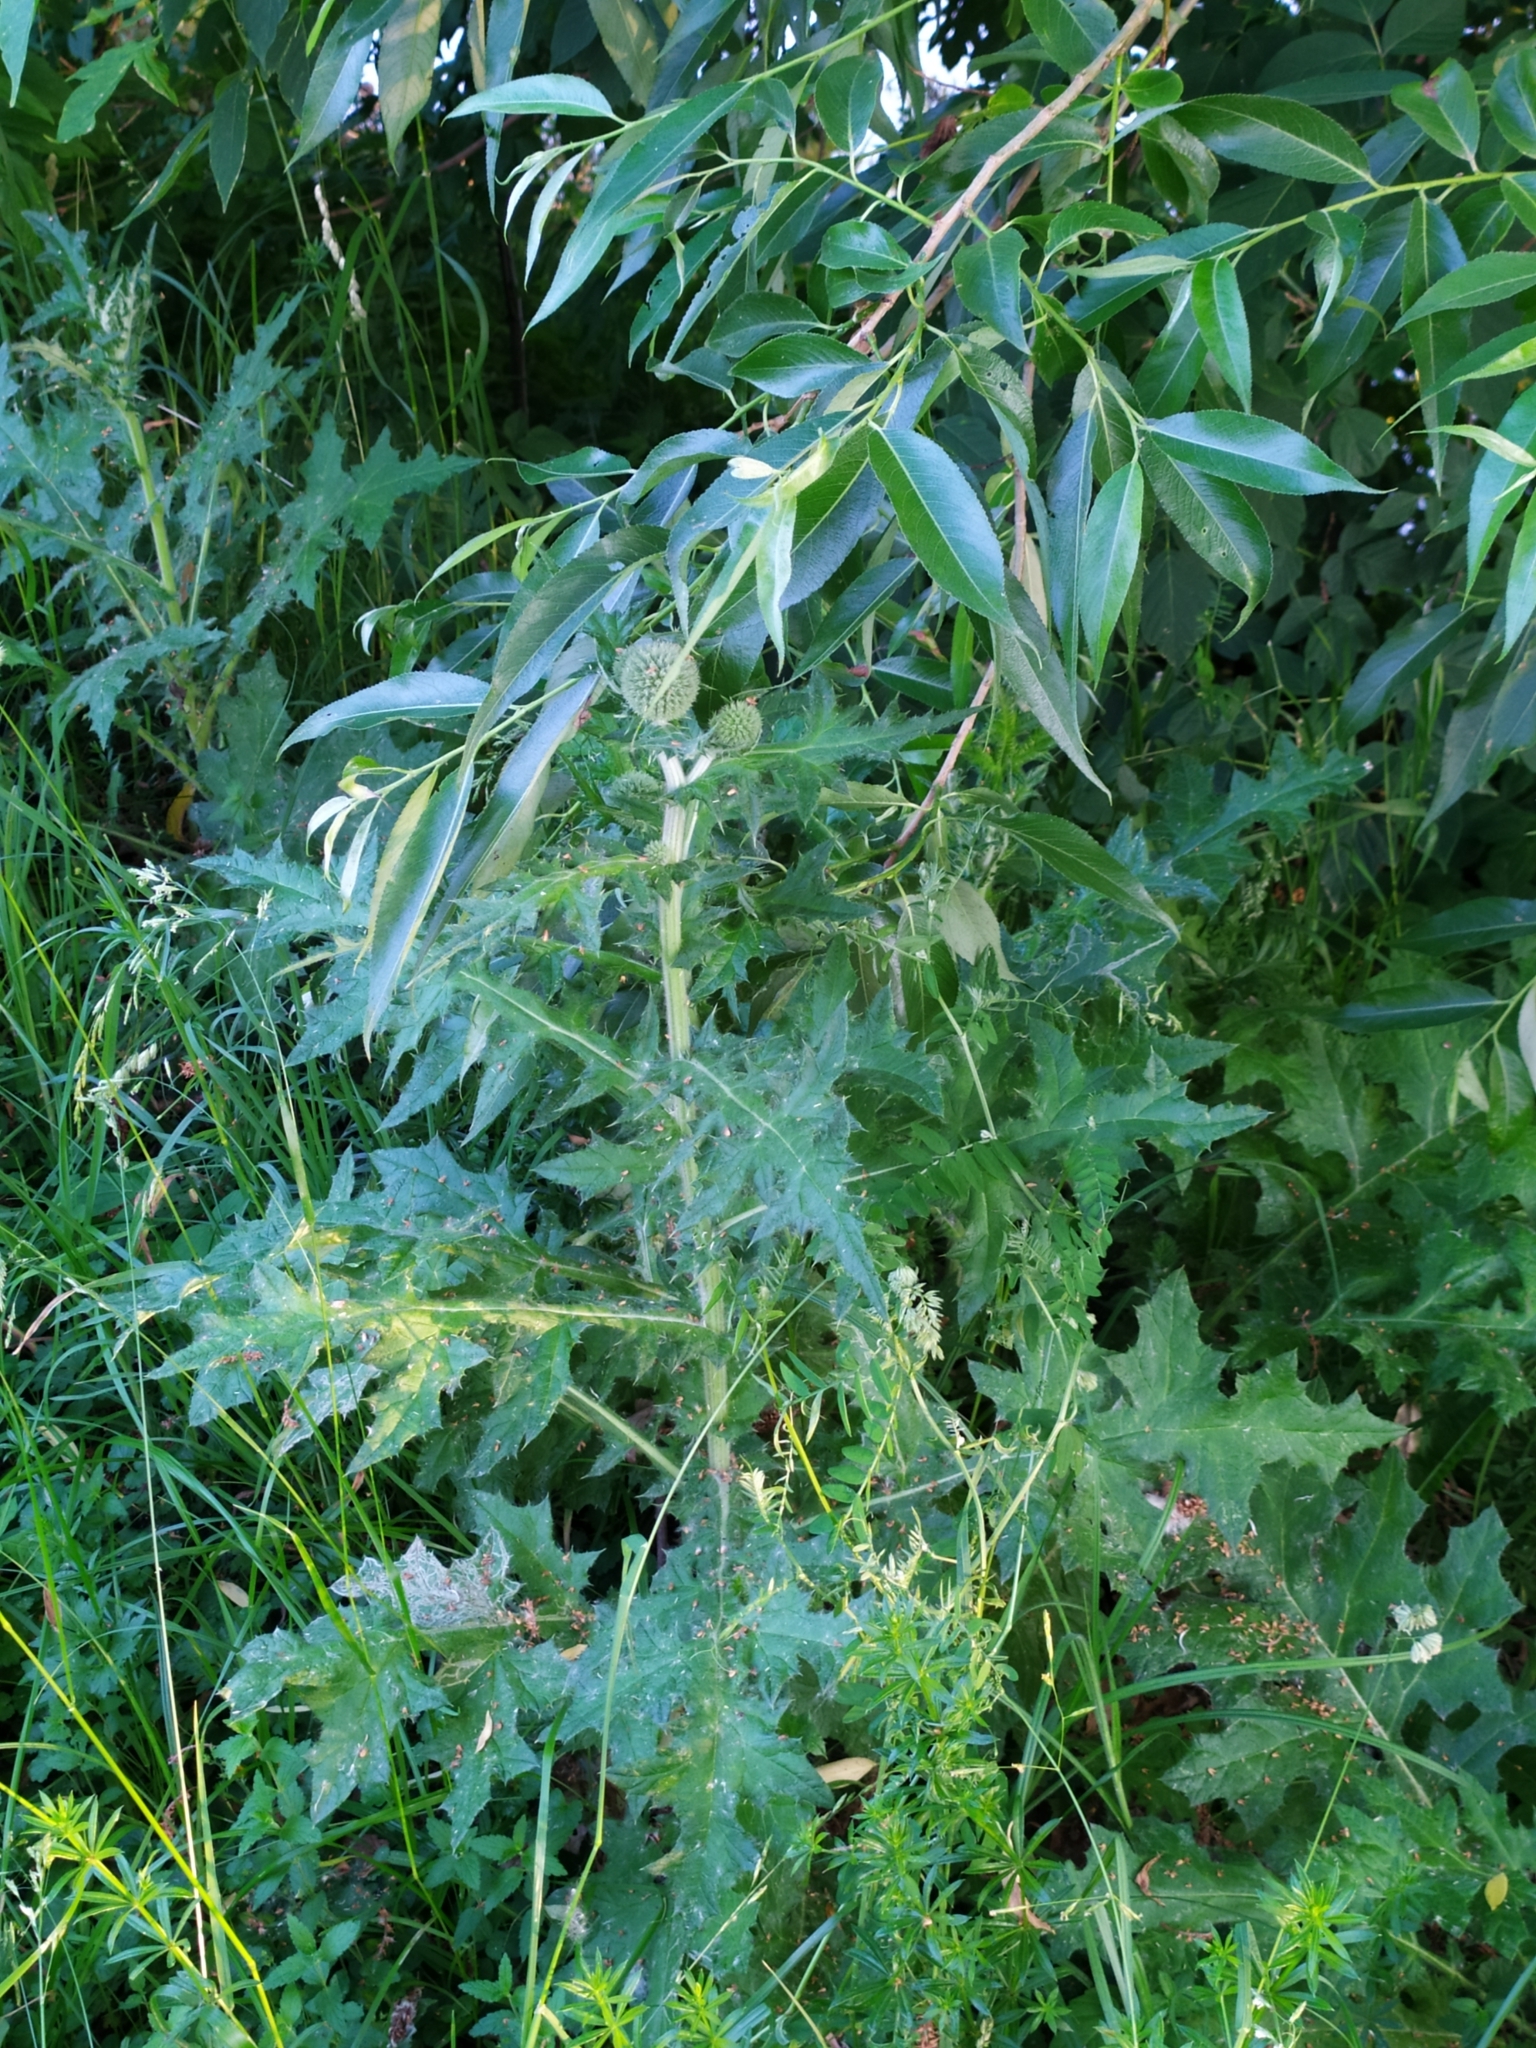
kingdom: Plantae
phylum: Tracheophyta
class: Magnoliopsida
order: Asterales
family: Asteraceae
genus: Echinops
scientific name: Echinops sphaerocephalus
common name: Glandular globe-thistle
